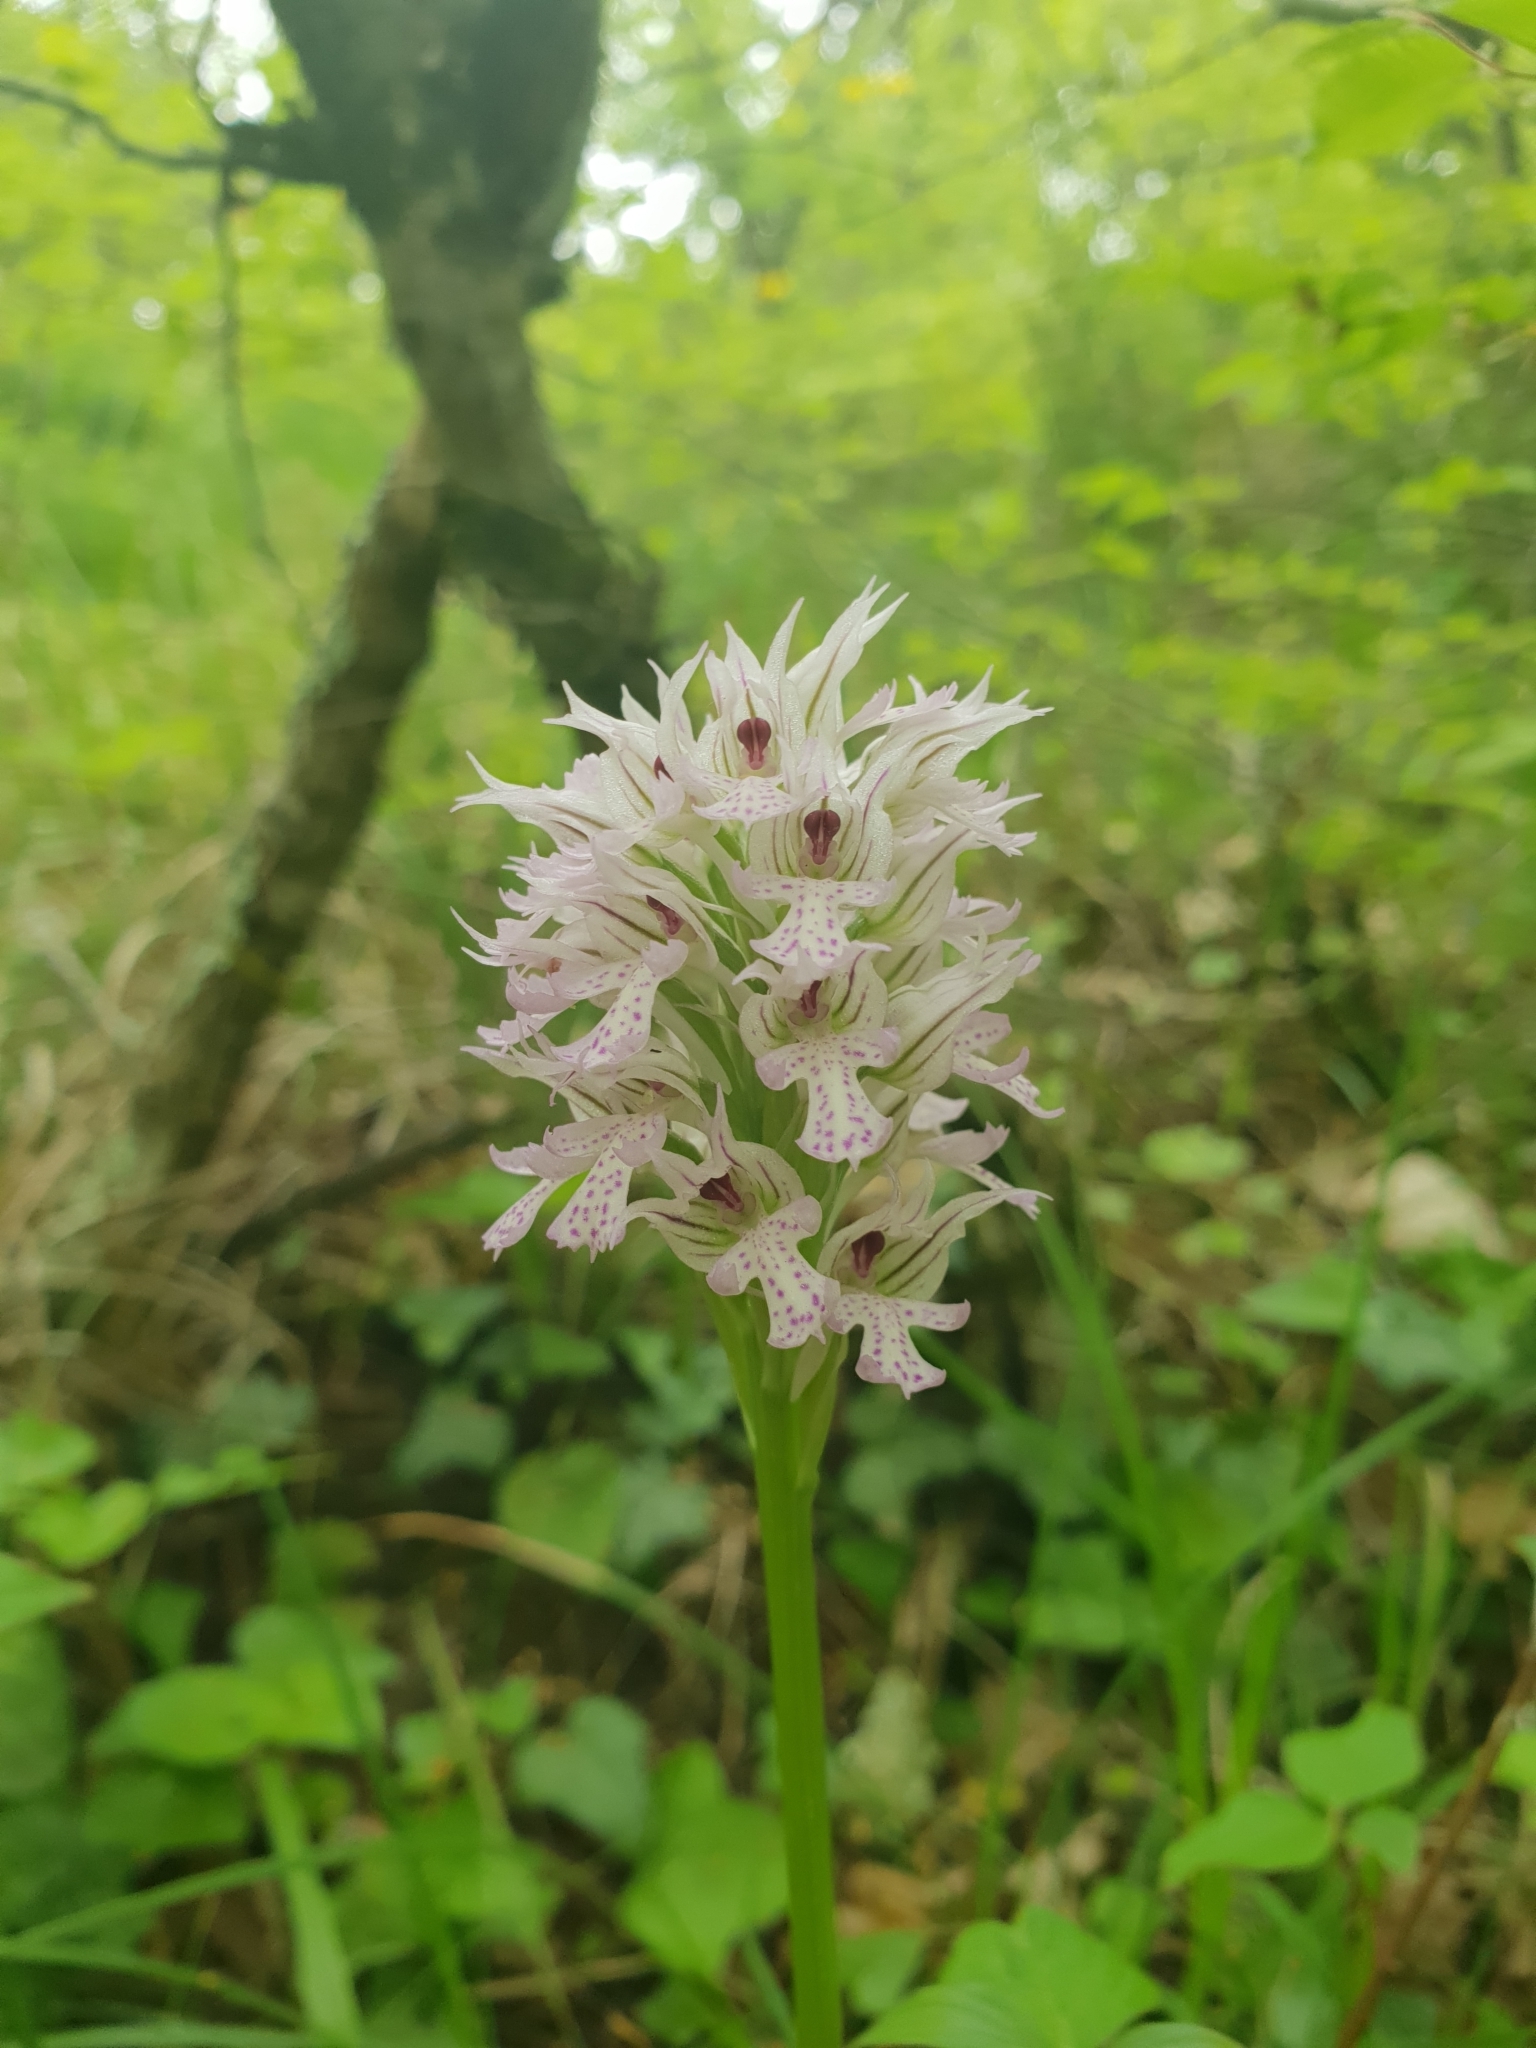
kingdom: Plantae
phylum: Tracheophyta
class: Liliopsida
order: Asparagales
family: Orchidaceae
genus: Neotinea
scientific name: Neotinea tridentata
